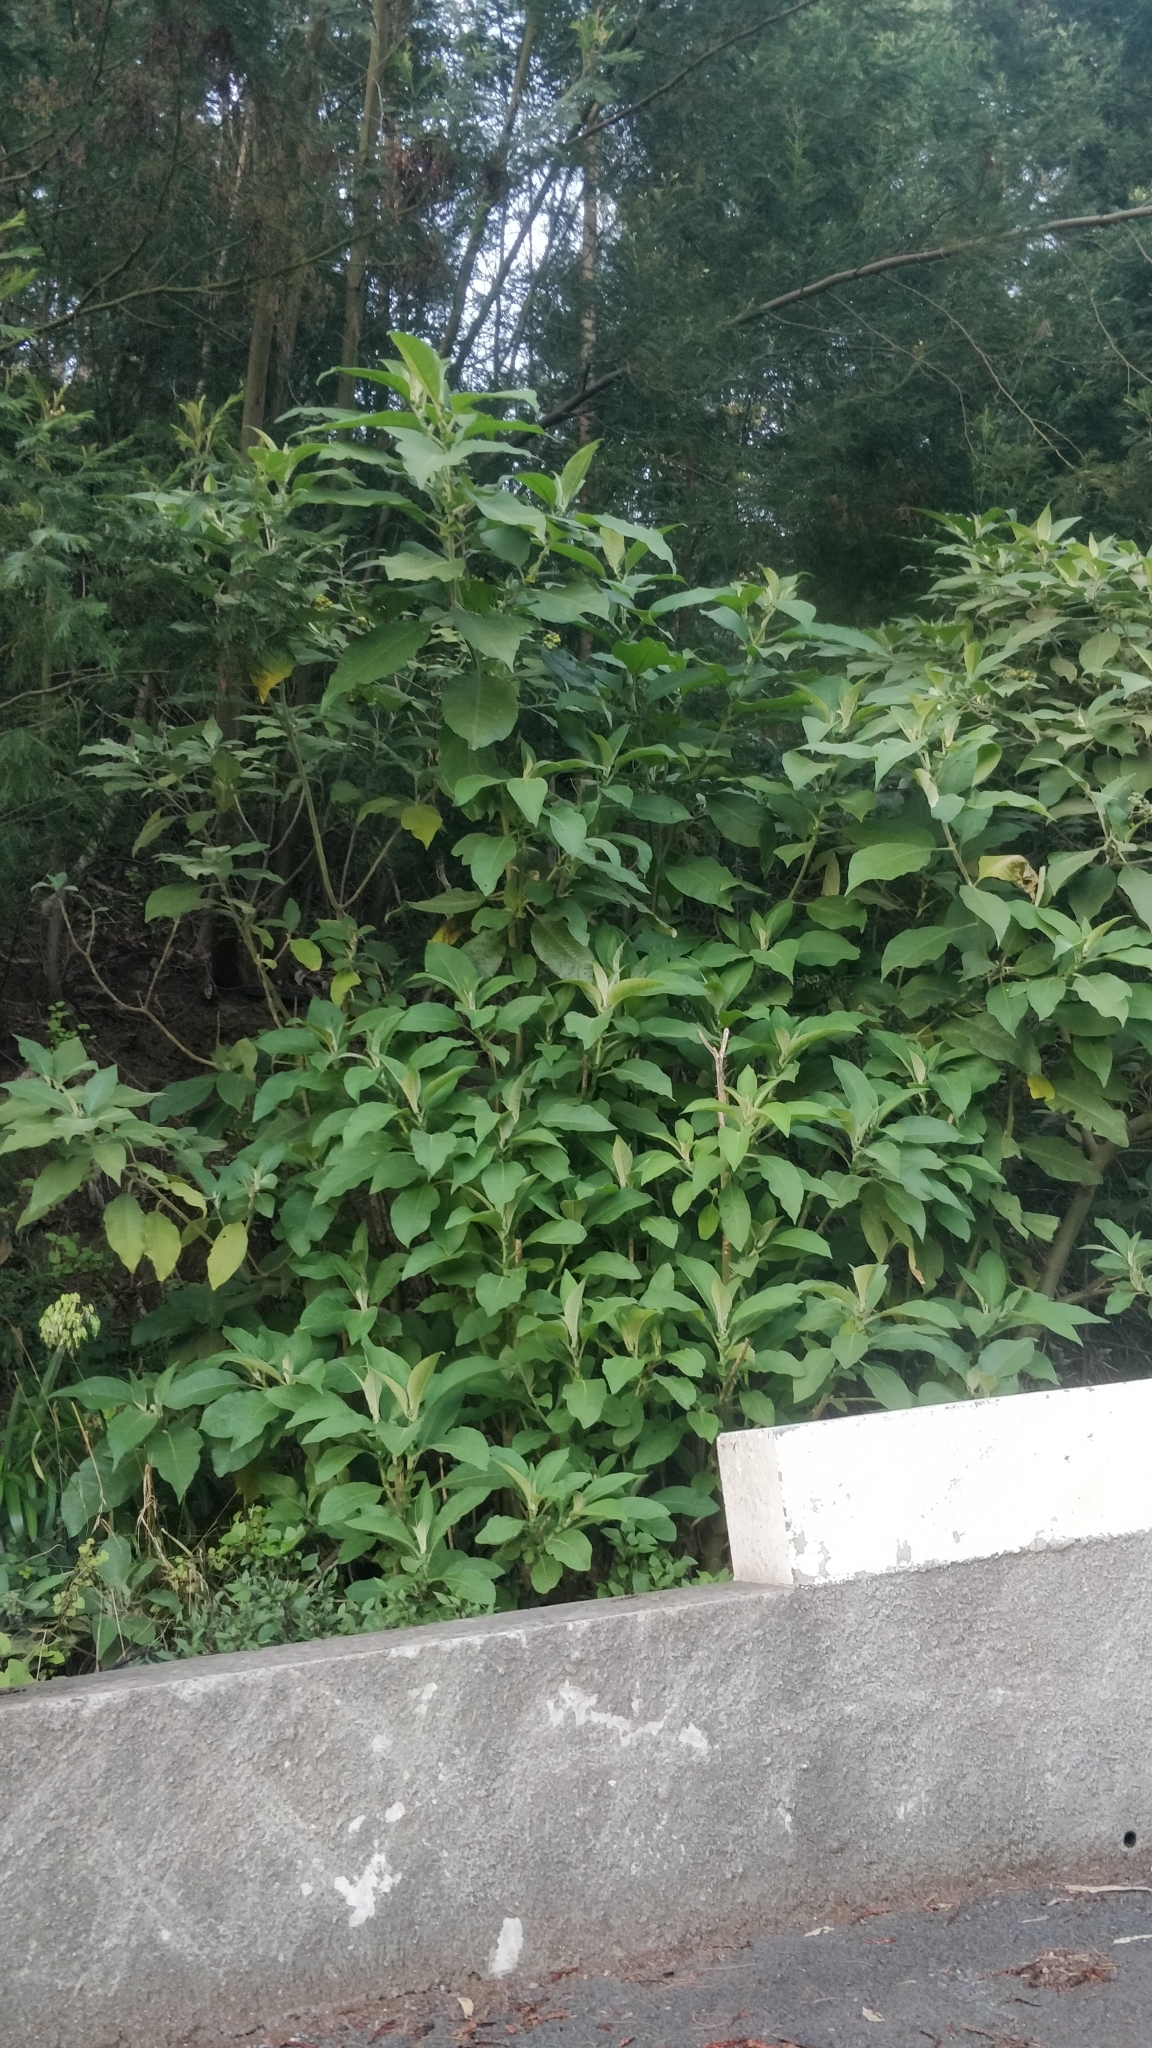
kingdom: Plantae
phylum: Tracheophyta
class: Magnoliopsida
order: Solanales
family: Solanaceae
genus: Solanum
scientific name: Solanum mauritianum
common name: Earleaf nightshade
